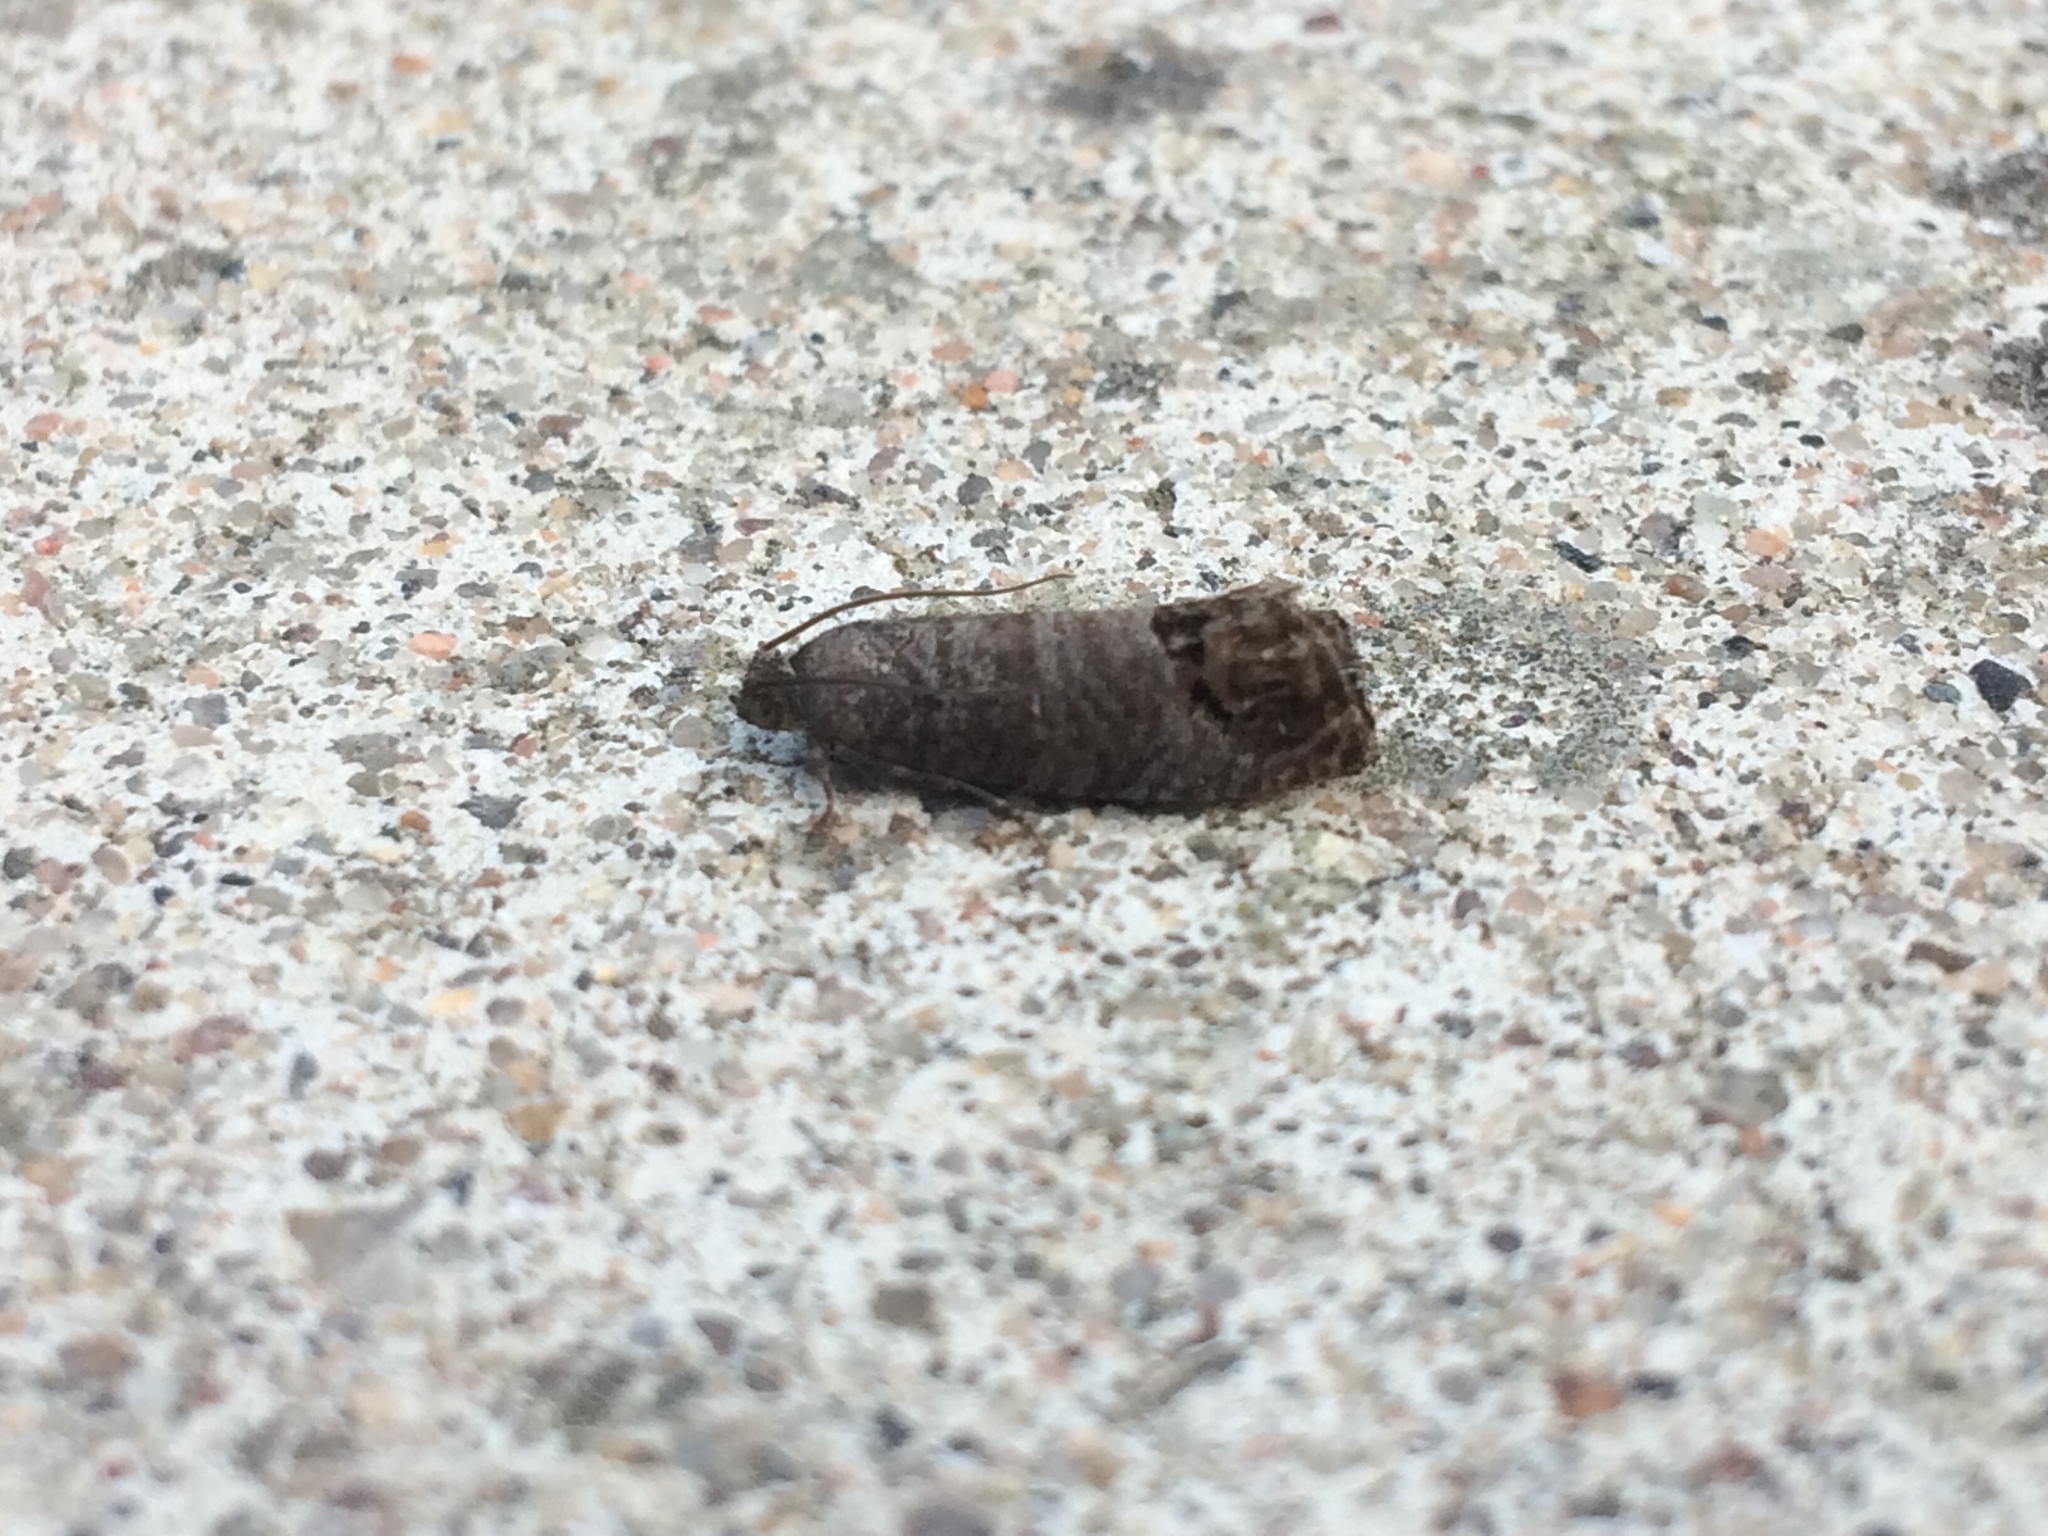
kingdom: Animalia
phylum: Arthropoda
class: Insecta
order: Lepidoptera
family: Tortricidae
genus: Cydia
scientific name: Cydia pomonella
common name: Codling moth
